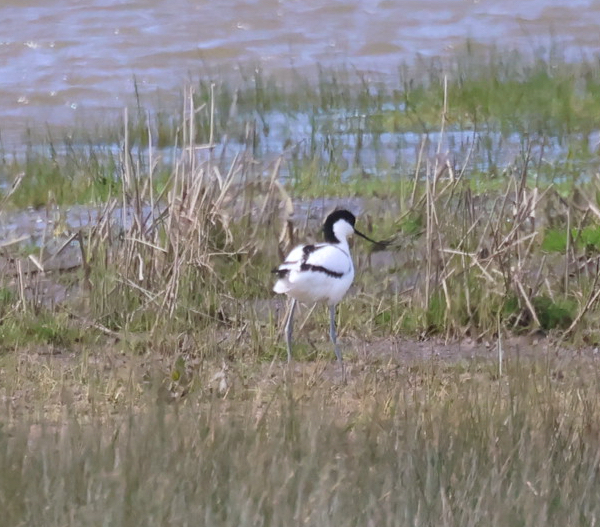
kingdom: Animalia
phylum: Chordata
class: Aves
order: Charadriiformes
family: Recurvirostridae
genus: Recurvirostra
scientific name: Recurvirostra avosetta
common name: Pied avocet
